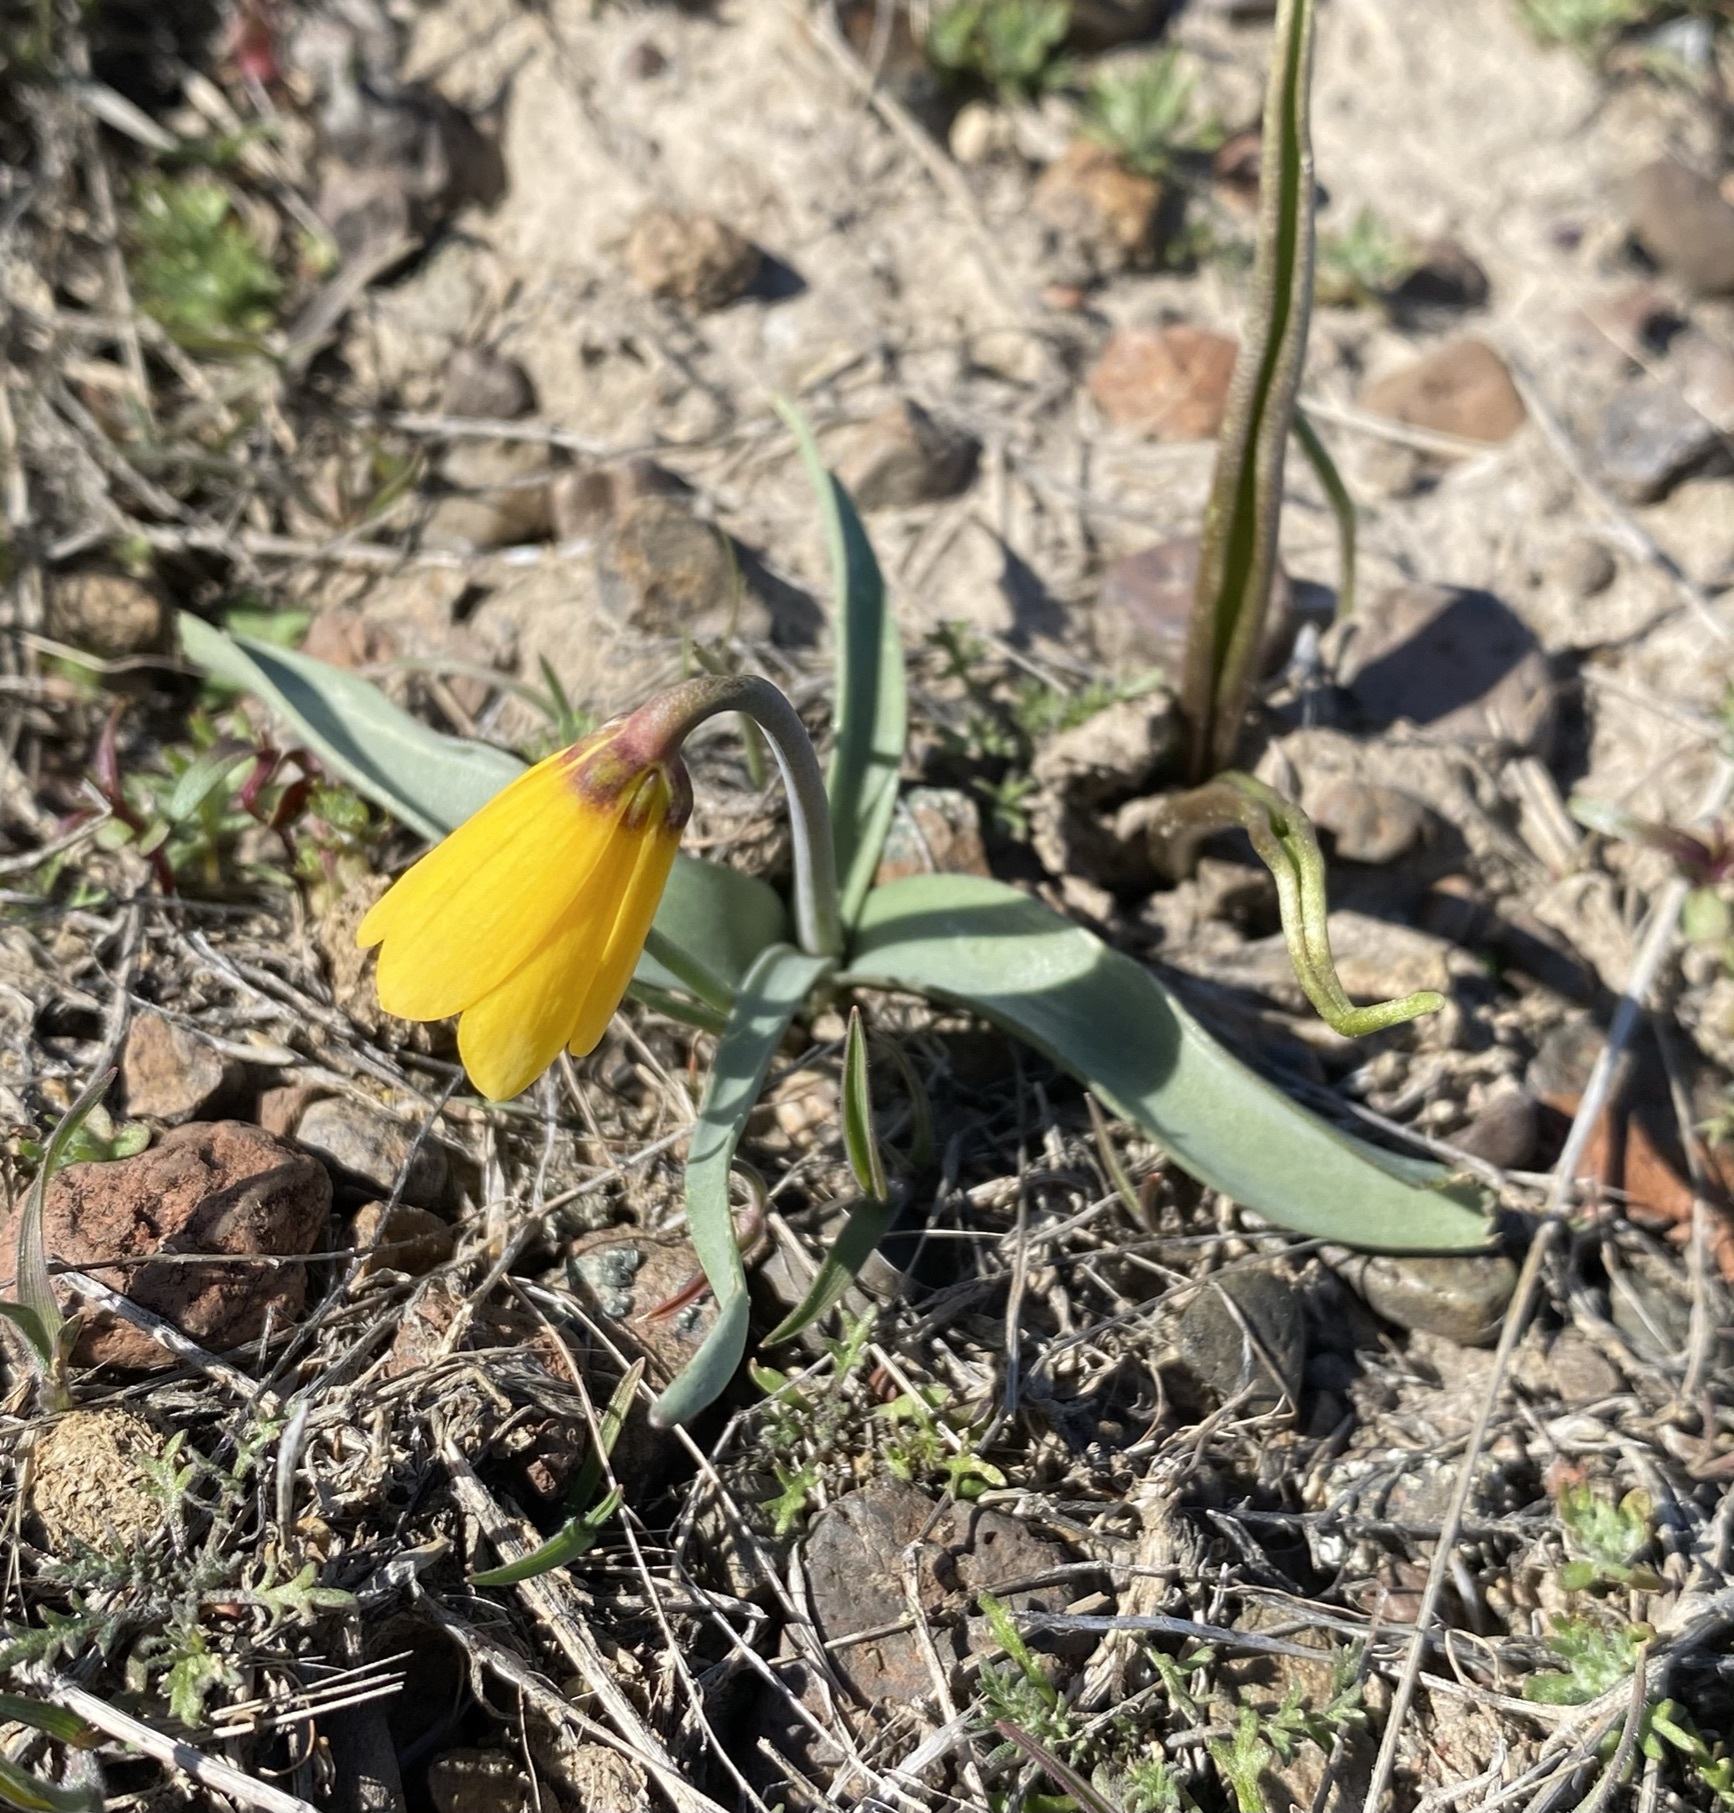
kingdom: Plantae
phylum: Tracheophyta
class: Liliopsida
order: Liliales
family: Liliaceae
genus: Fritillaria
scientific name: Fritillaria pudica
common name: Yellow fritillary
